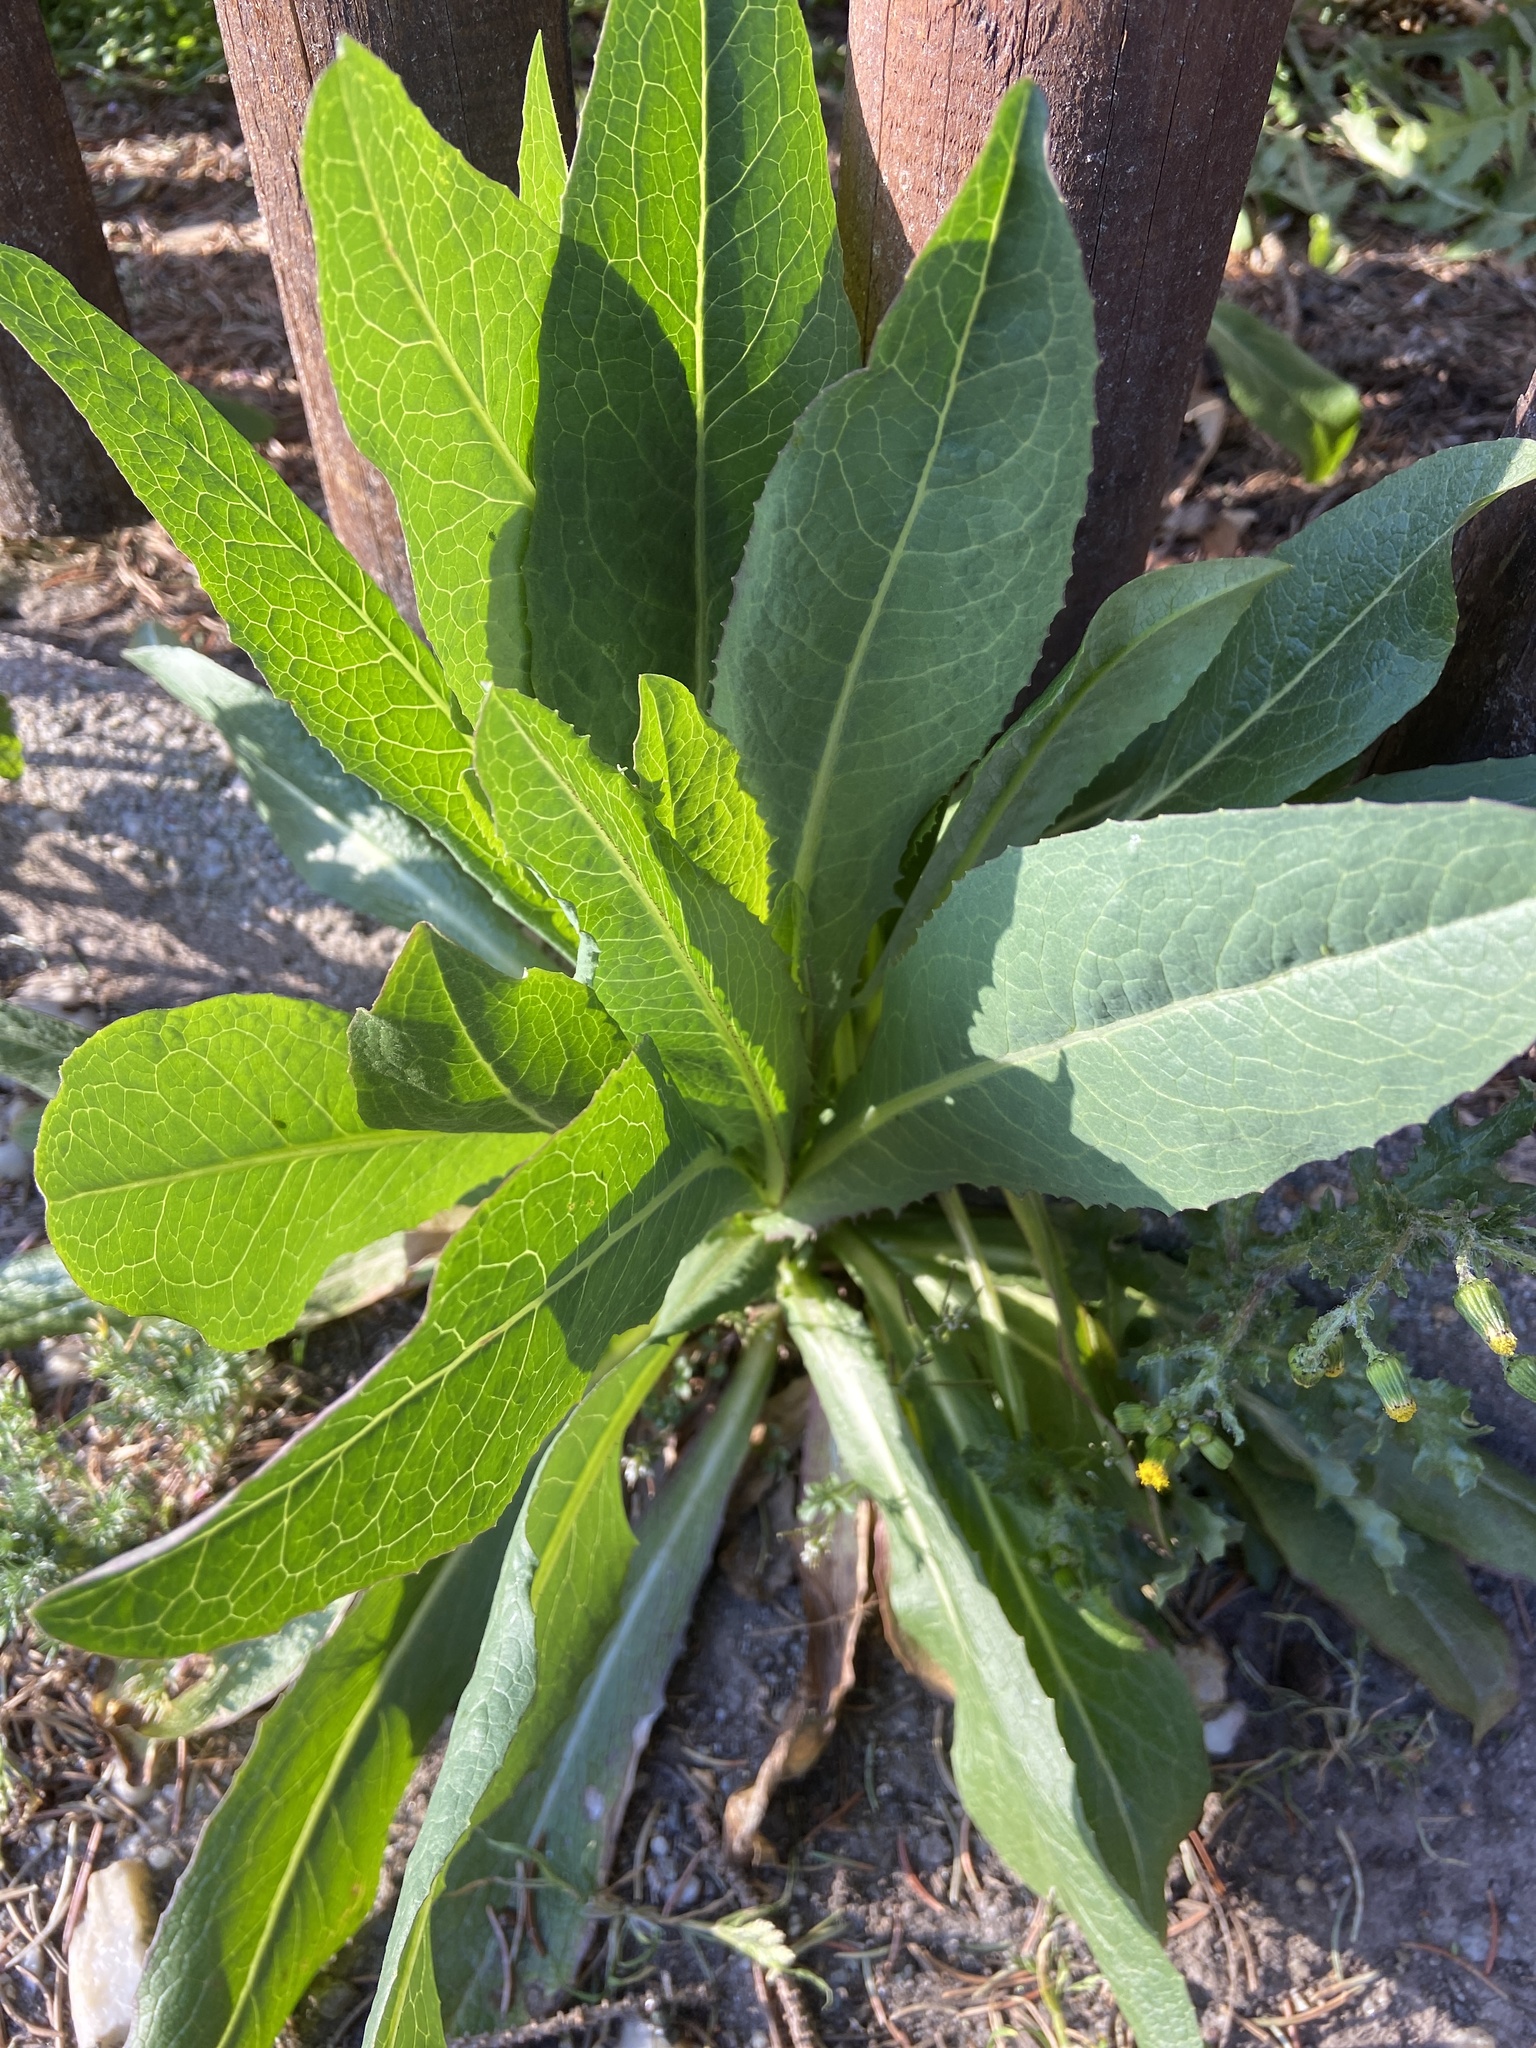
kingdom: Plantae
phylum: Tracheophyta
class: Magnoliopsida
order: Asterales
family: Asteraceae
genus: Lactuca
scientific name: Lactuca serriola
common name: Prickly lettuce
